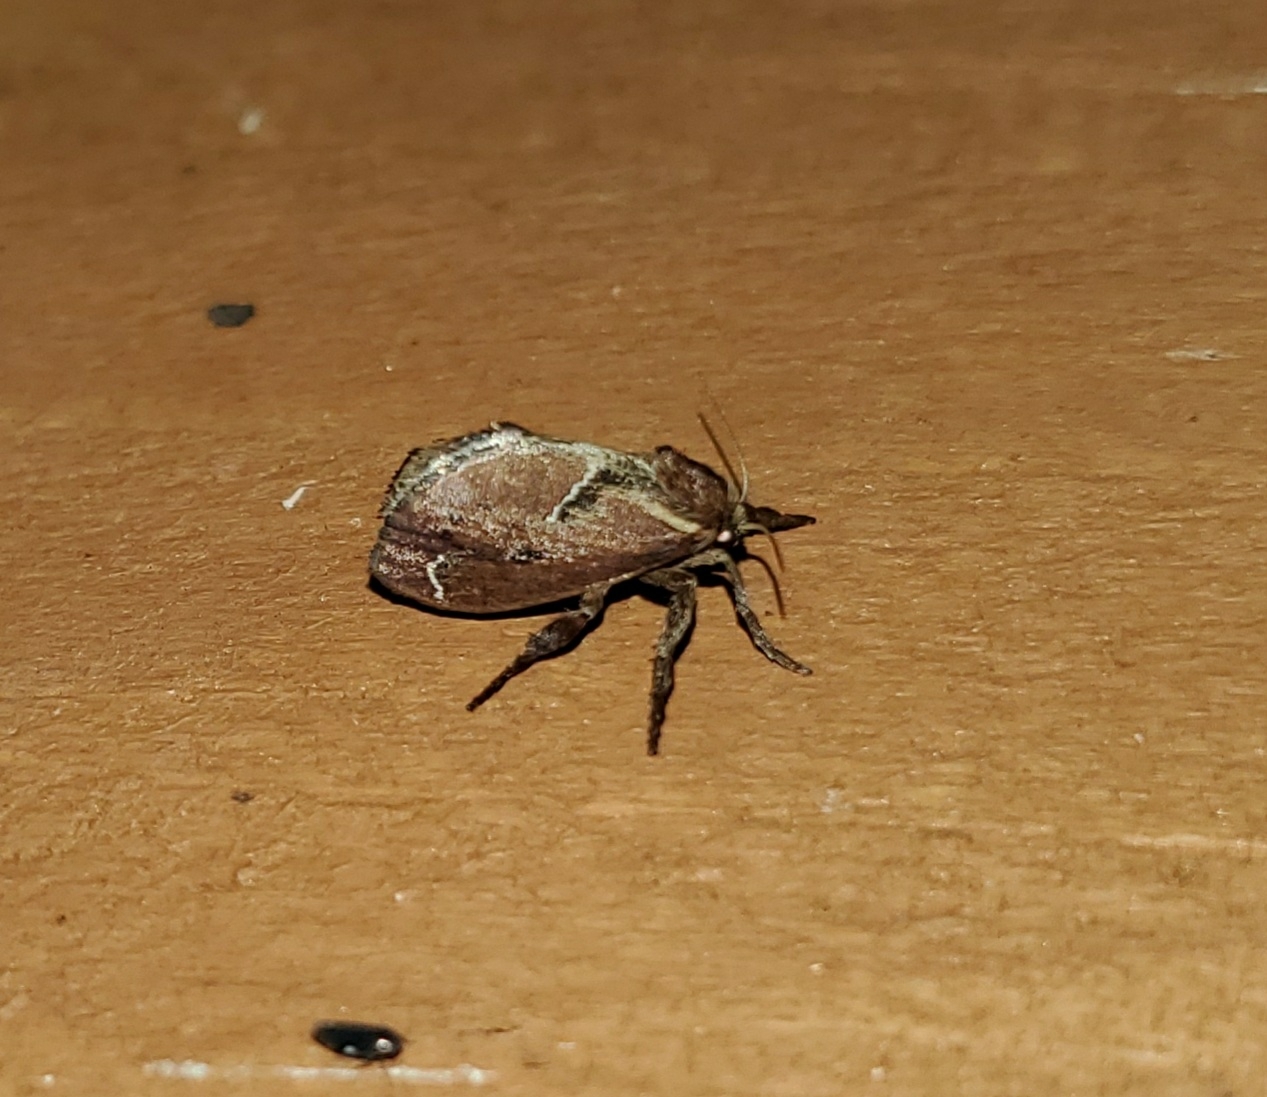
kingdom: Animalia
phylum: Arthropoda
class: Insecta
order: Lepidoptera
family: Limacodidae
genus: Adoneta
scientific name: Adoneta spinuloides
